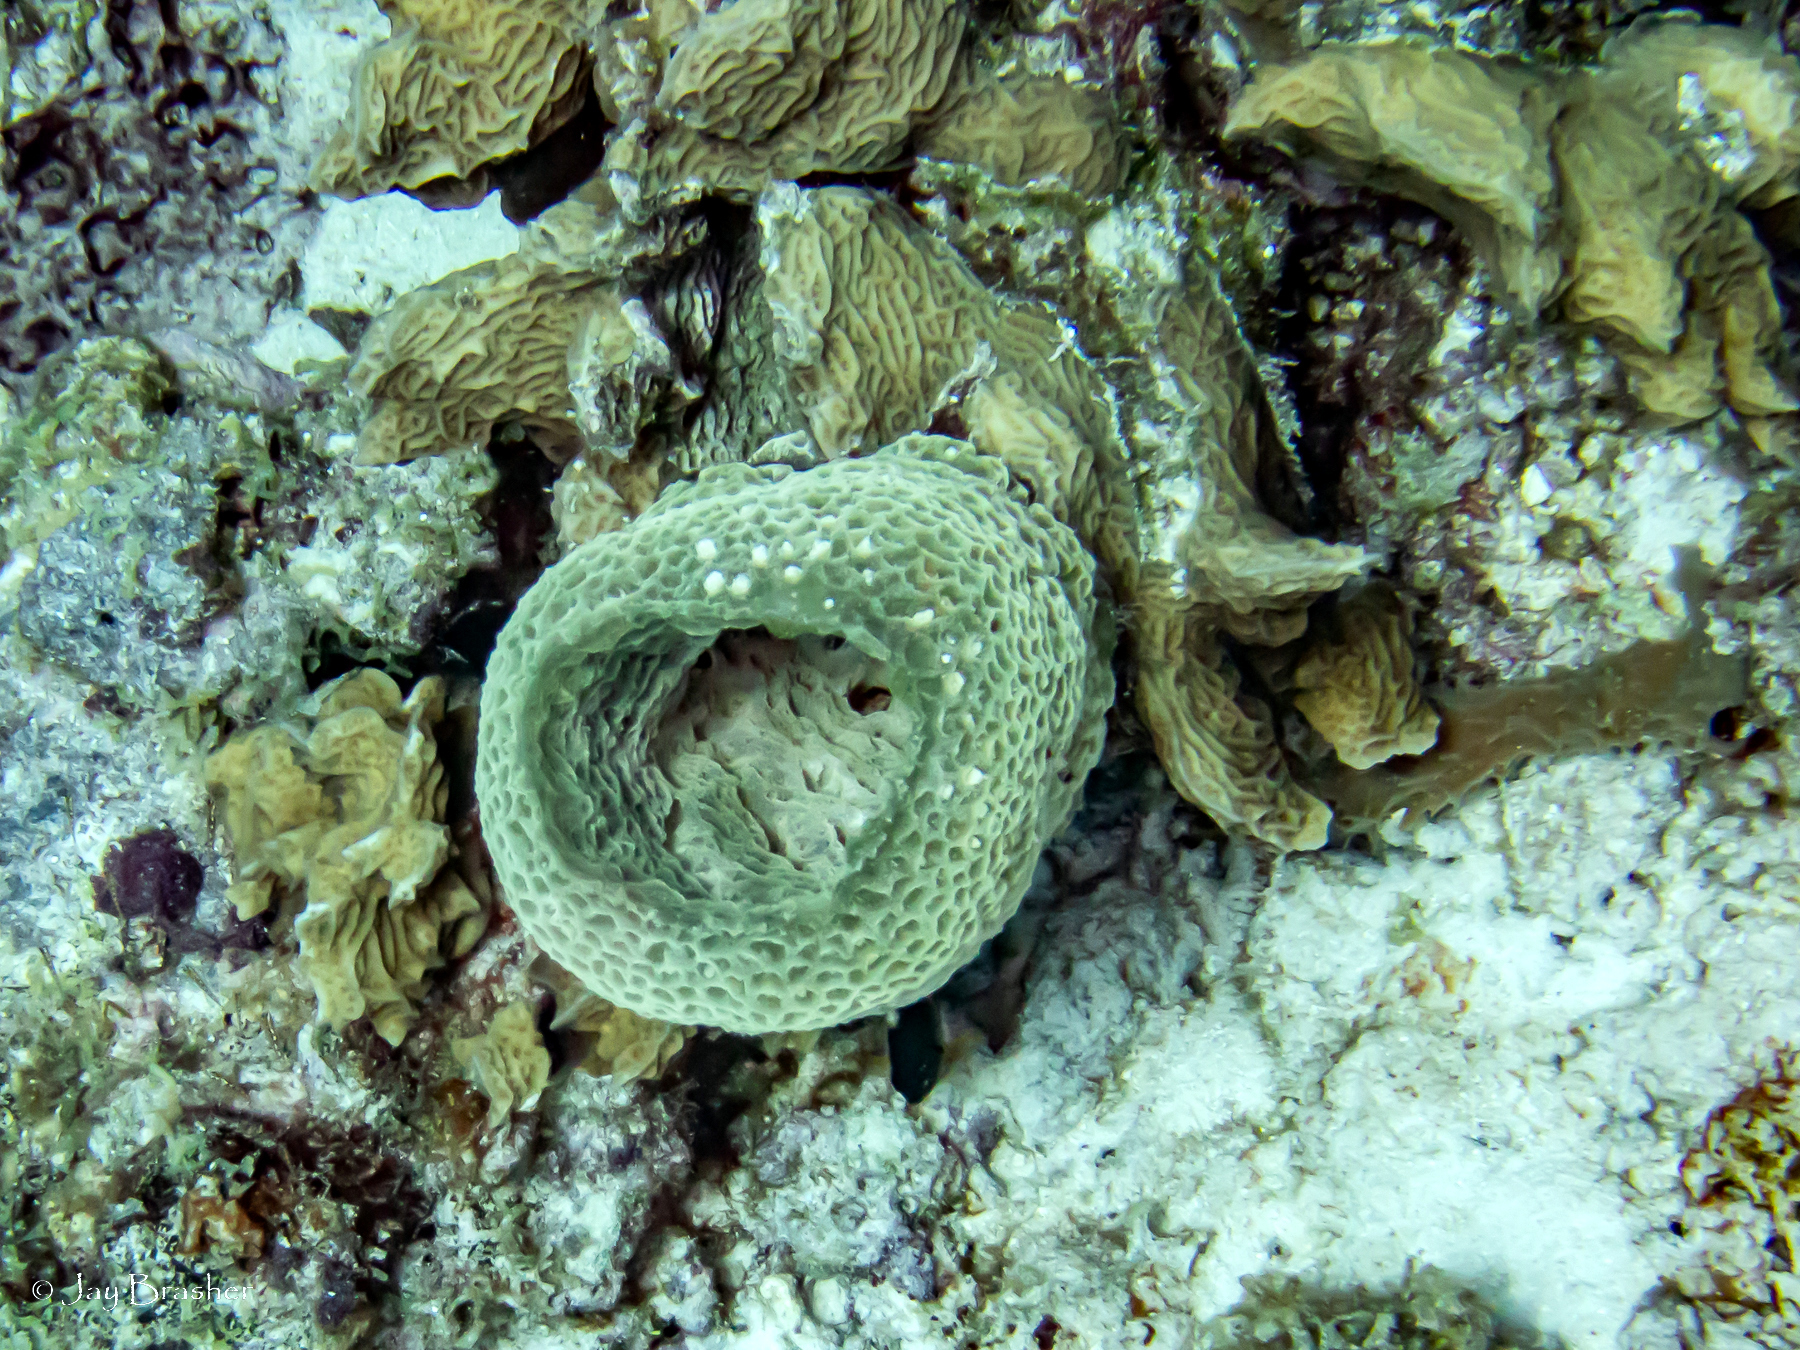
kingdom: Animalia
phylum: Porifera
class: Demospongiae
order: Haplosclerida
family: Callyspongiidae
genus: Callyspongia
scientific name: Callyspongia plicifera
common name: Azure vase sponge
